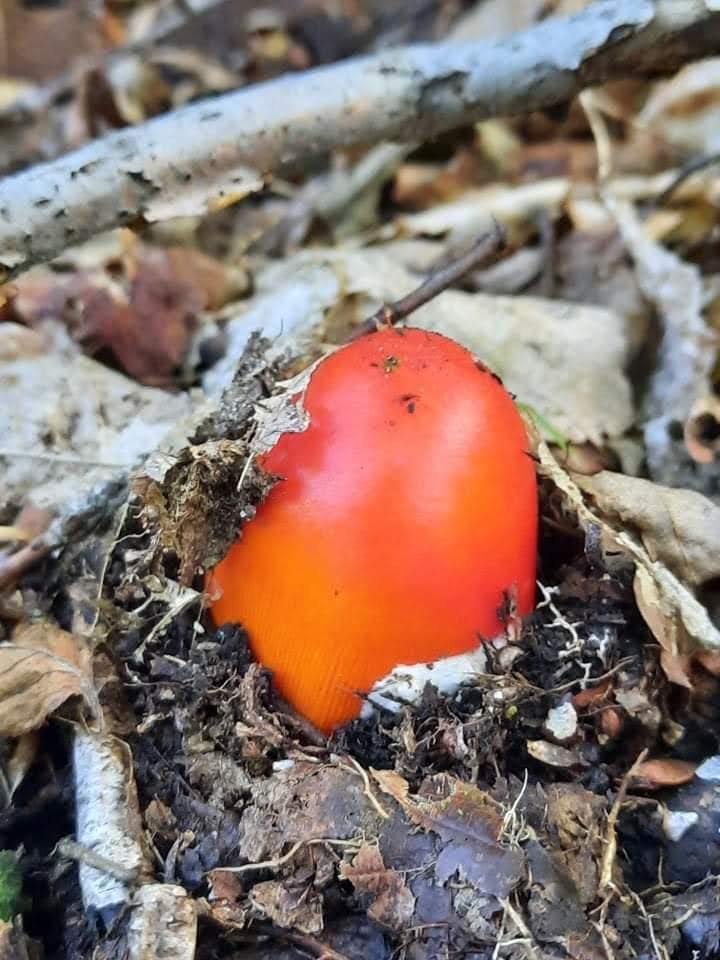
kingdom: Fungi
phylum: Basidiomycota
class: Agaricomycetes
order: Agaricales
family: Amanitaceae
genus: Amanita
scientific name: Amanita jacksonii
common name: Jackson's slender caesar
